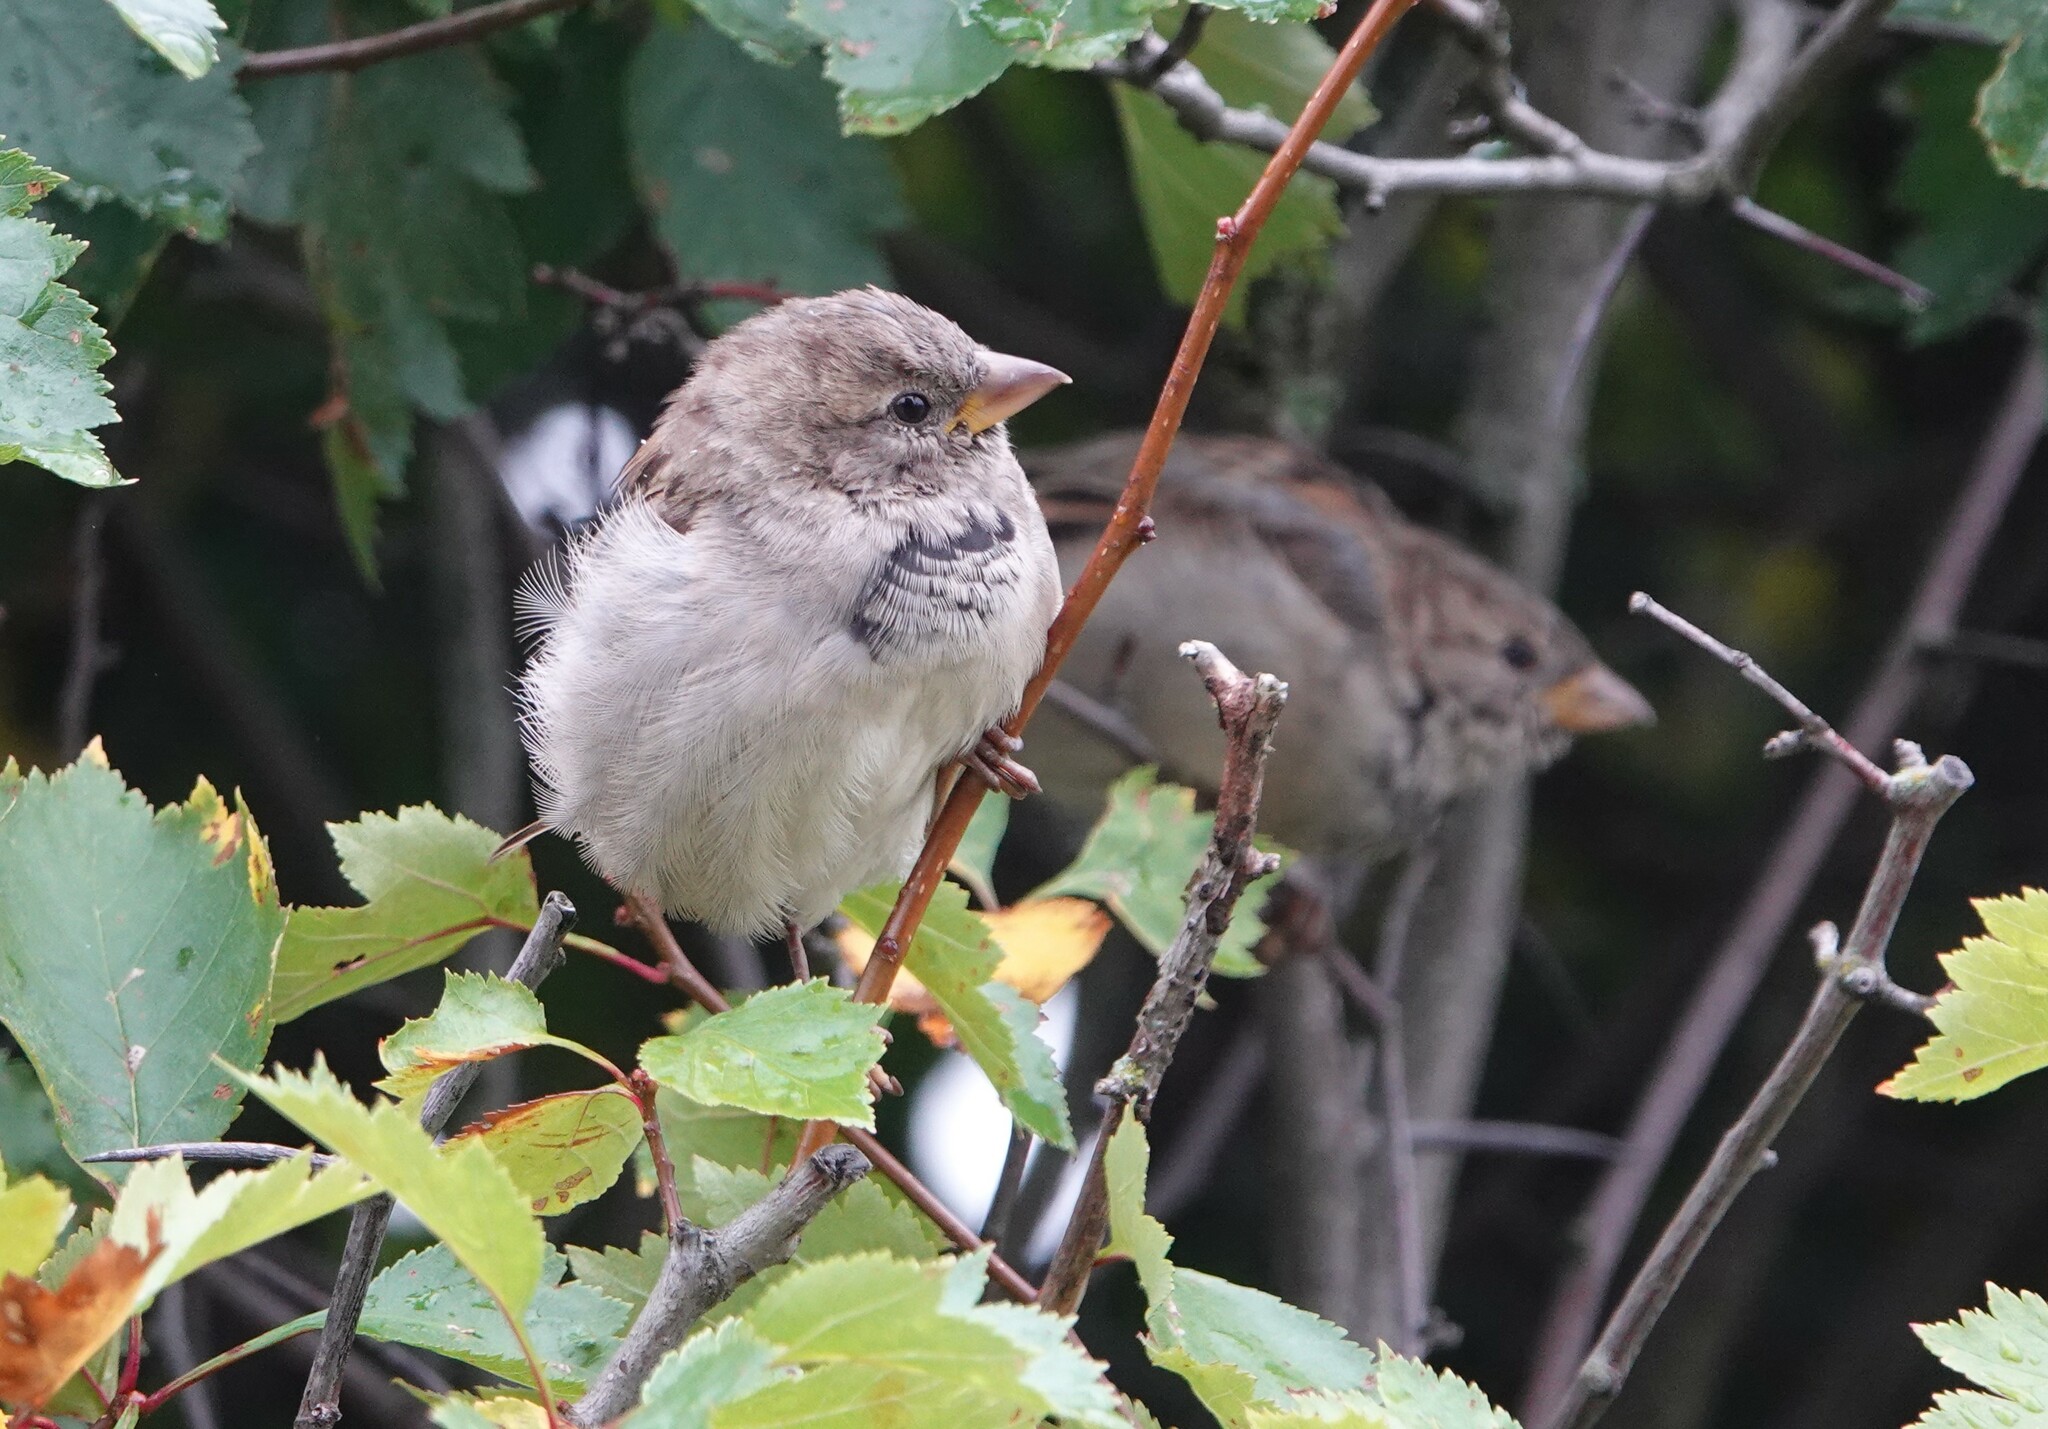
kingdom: Animalia
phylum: Chordata
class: Aves
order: Passeriformes
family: Passeridae
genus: Passer
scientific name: Passer domesticus
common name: House sparrow
